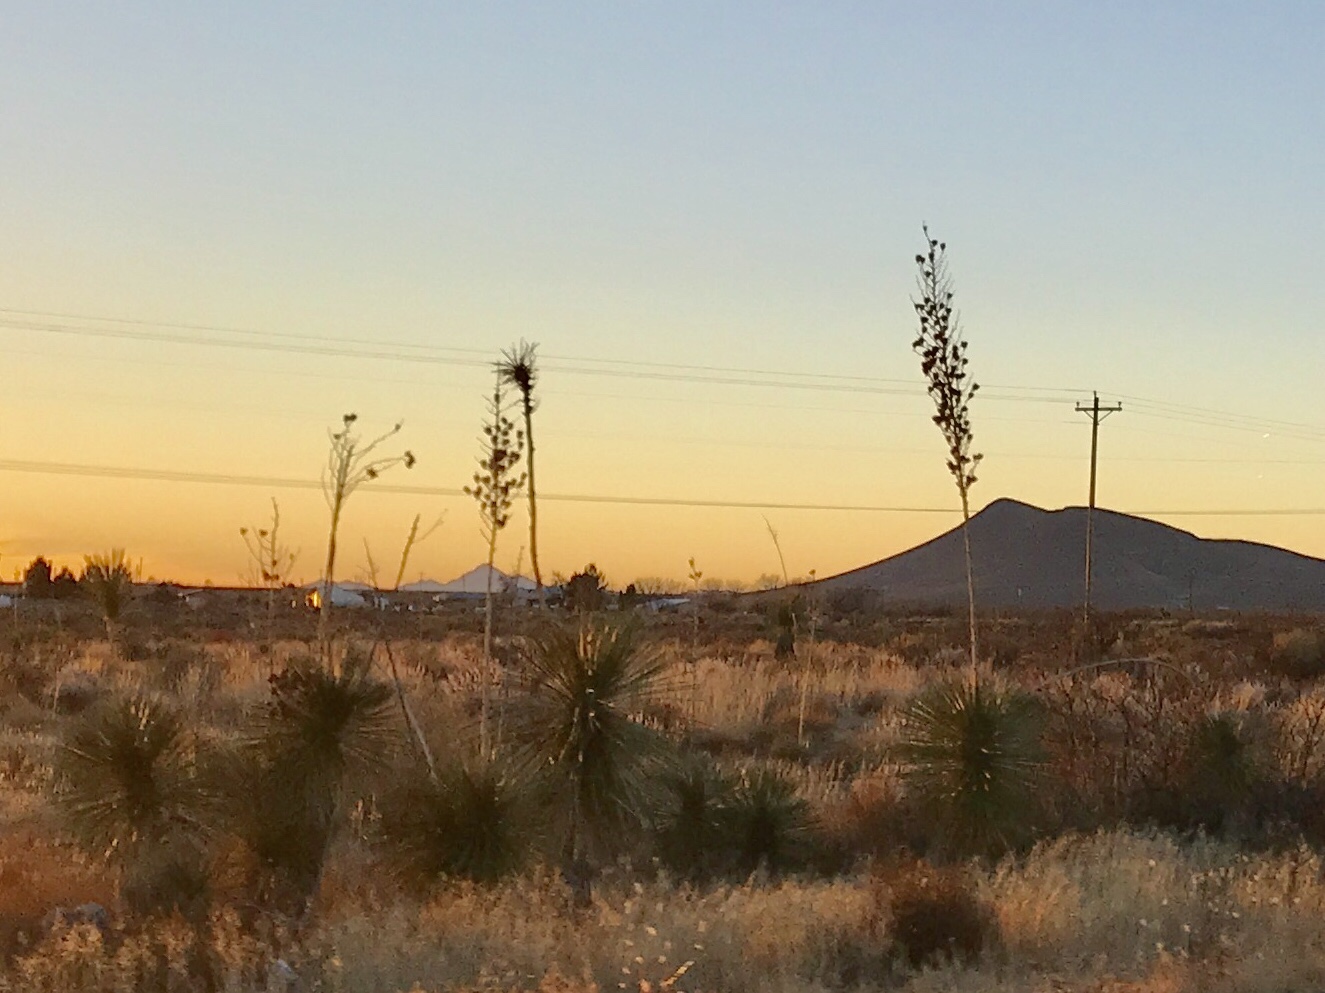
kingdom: Plantae
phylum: Tracheophyta
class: Liliopsida
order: Asparagales
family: Asparagaceae
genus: Yucca
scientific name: Yucca elata
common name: Palmella
